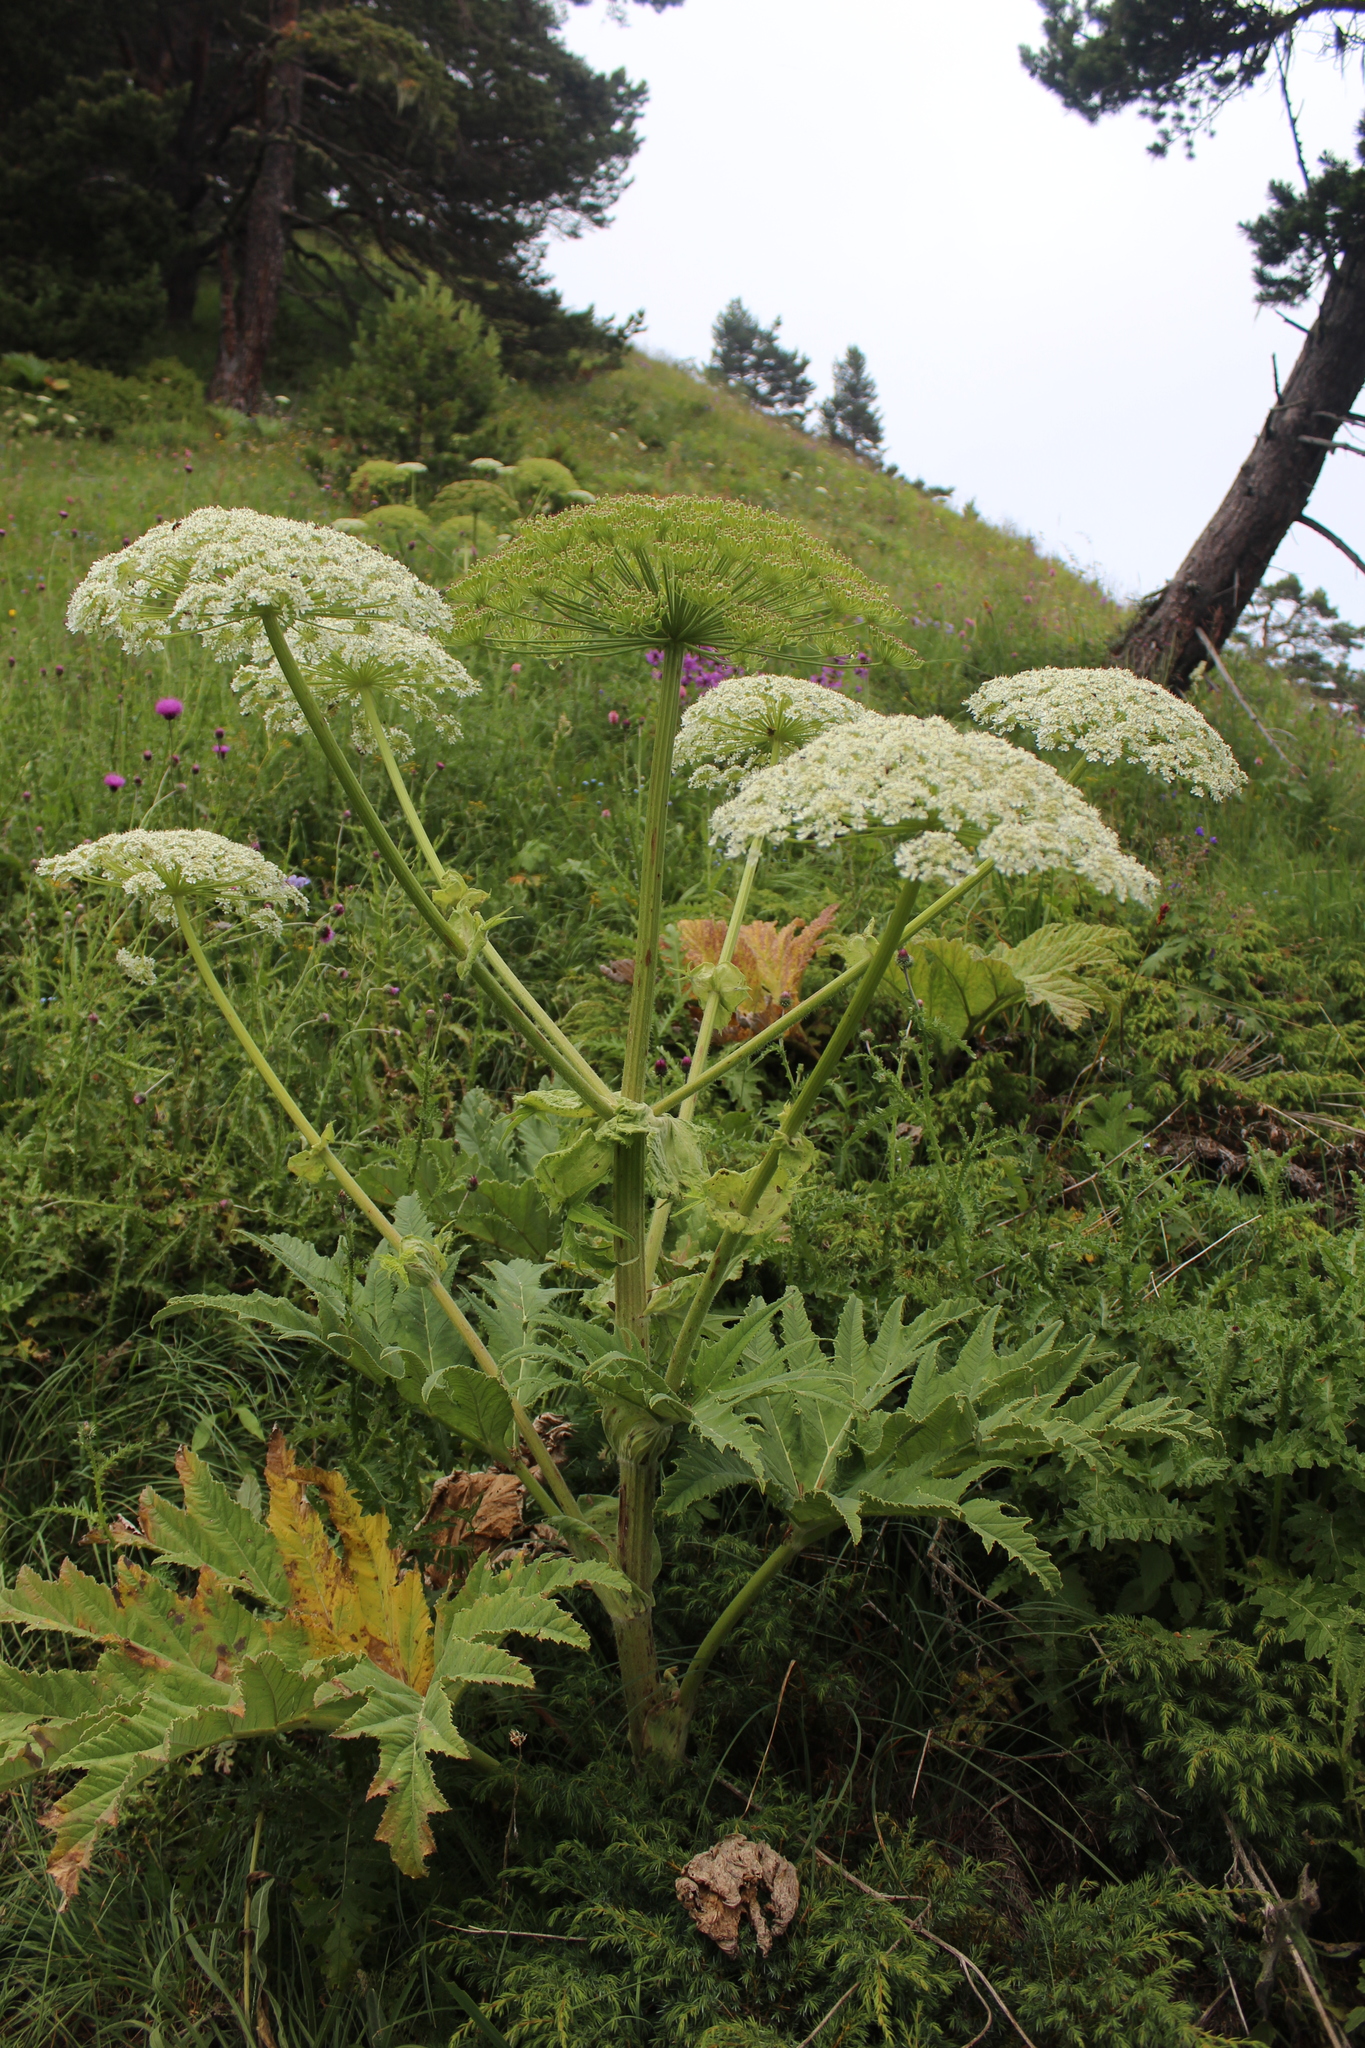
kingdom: Plantae
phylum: Tracheophyta
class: Magnoliopsida
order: Apiales
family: Apiaceae
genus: Heracleum
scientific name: Heracleum leskovii
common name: Leskov's cow-parsnip
